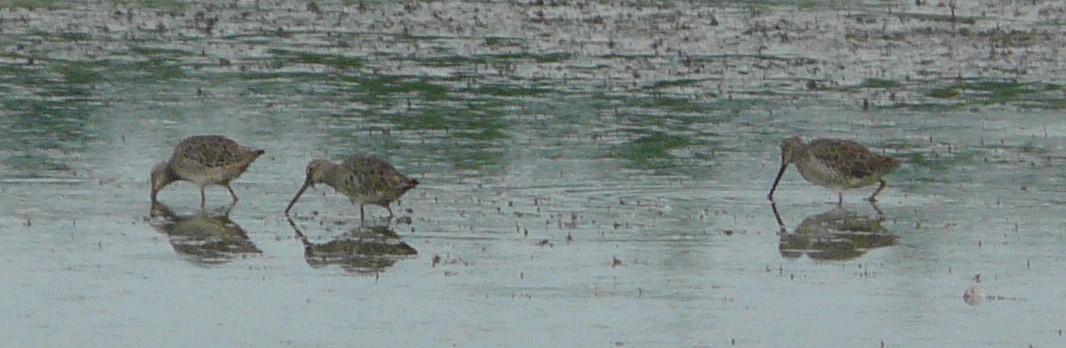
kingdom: Animalia
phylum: Chordata
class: Aves
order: Charadriiformes
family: Scolopacidae
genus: Limnodromus
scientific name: Limnodromus
